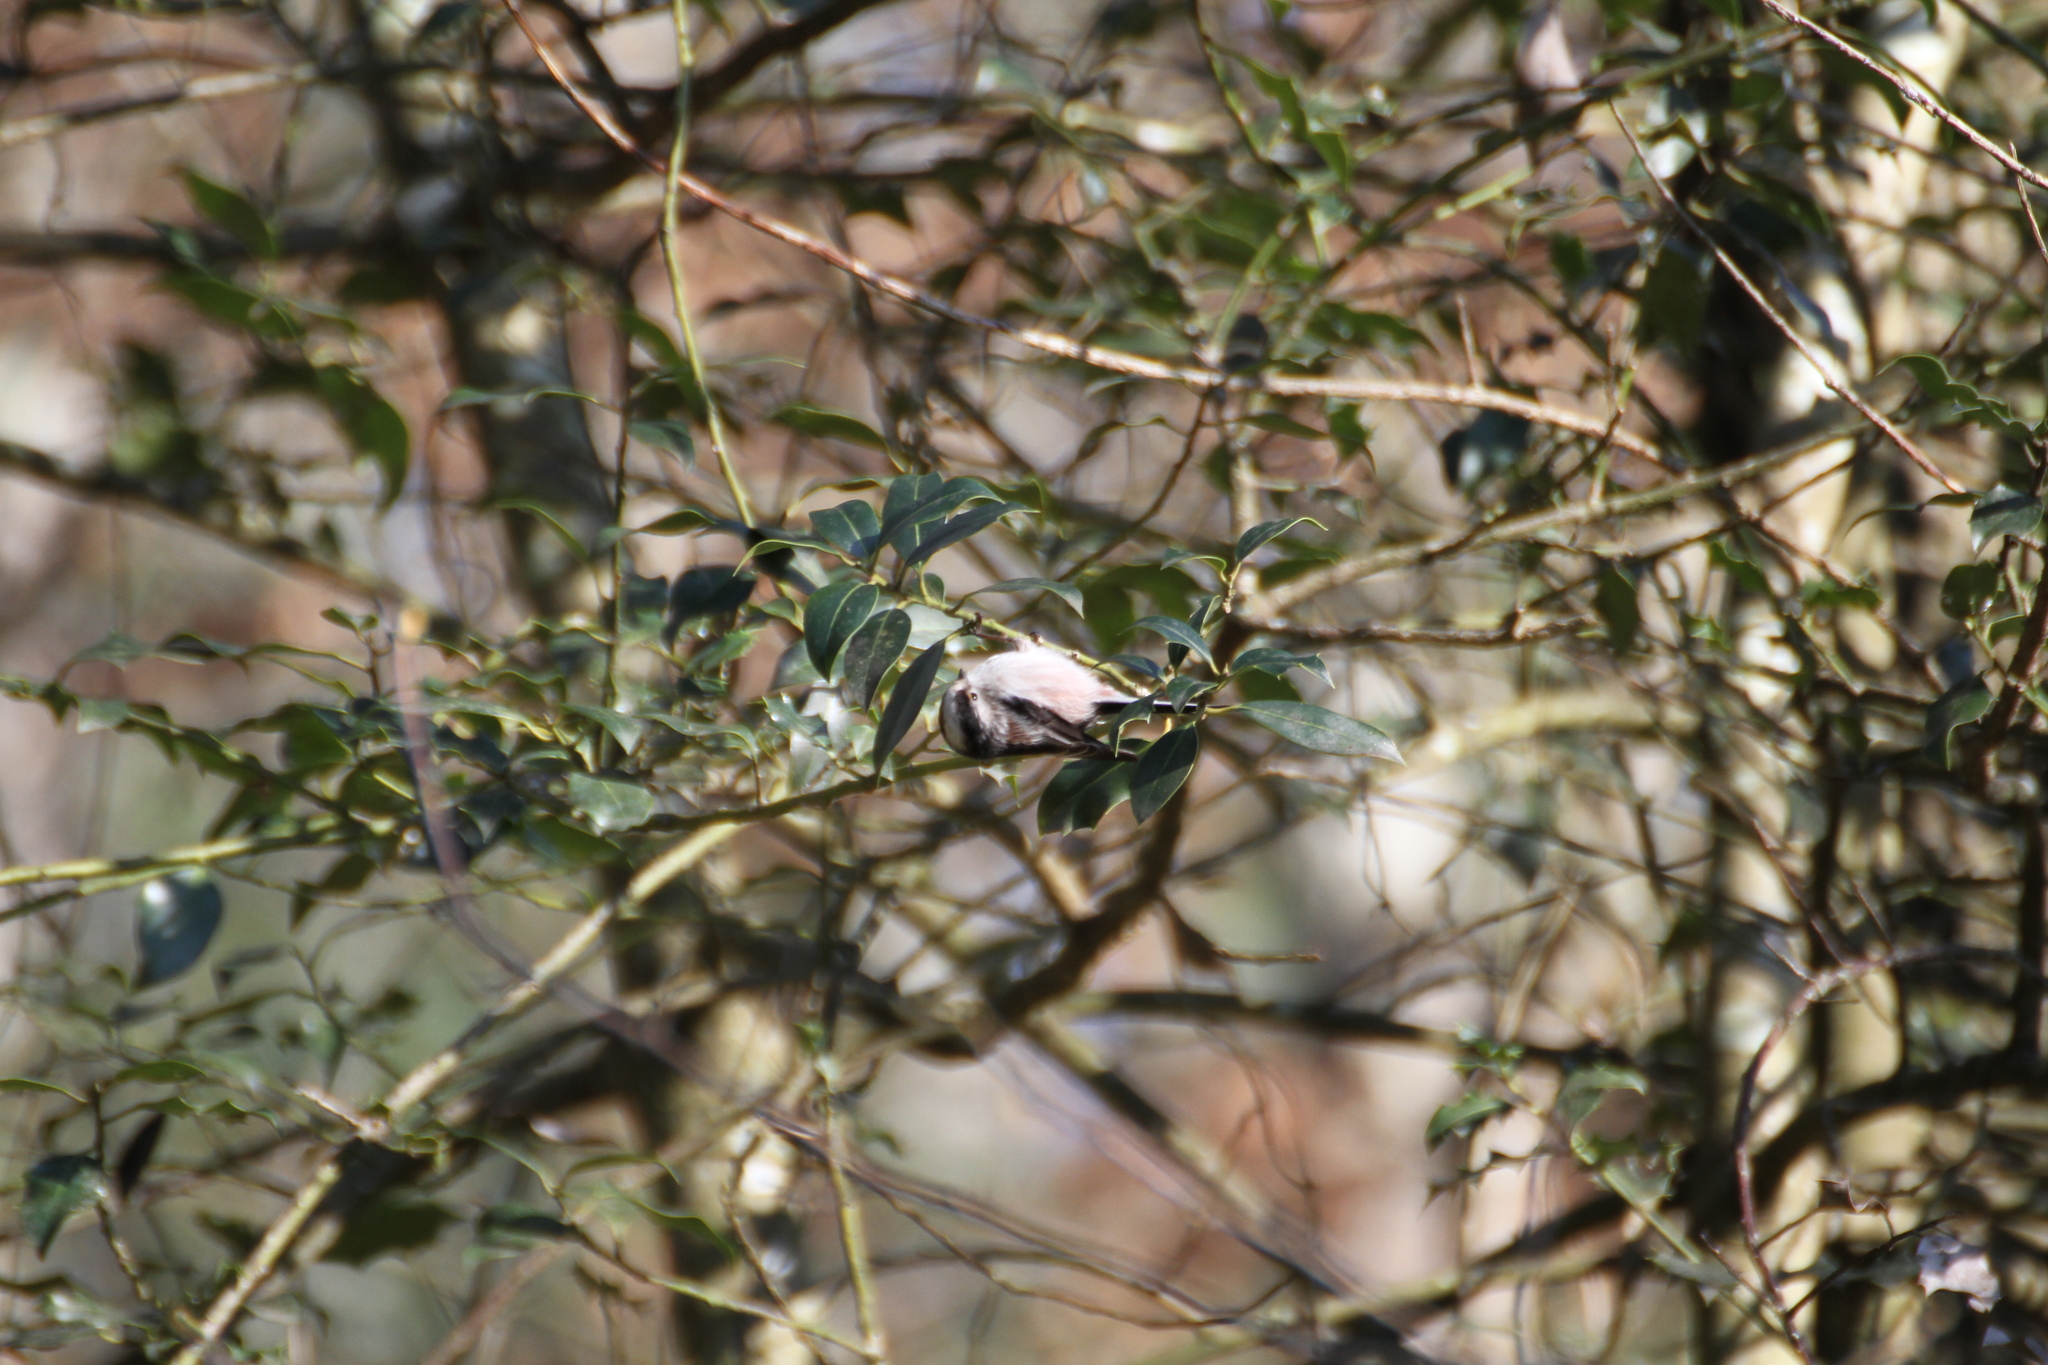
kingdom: Animalia
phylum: Chordata
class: Aves
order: Passeriformes
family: Aegithalidae
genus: Aegithalos
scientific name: Aegithalos caudatus
